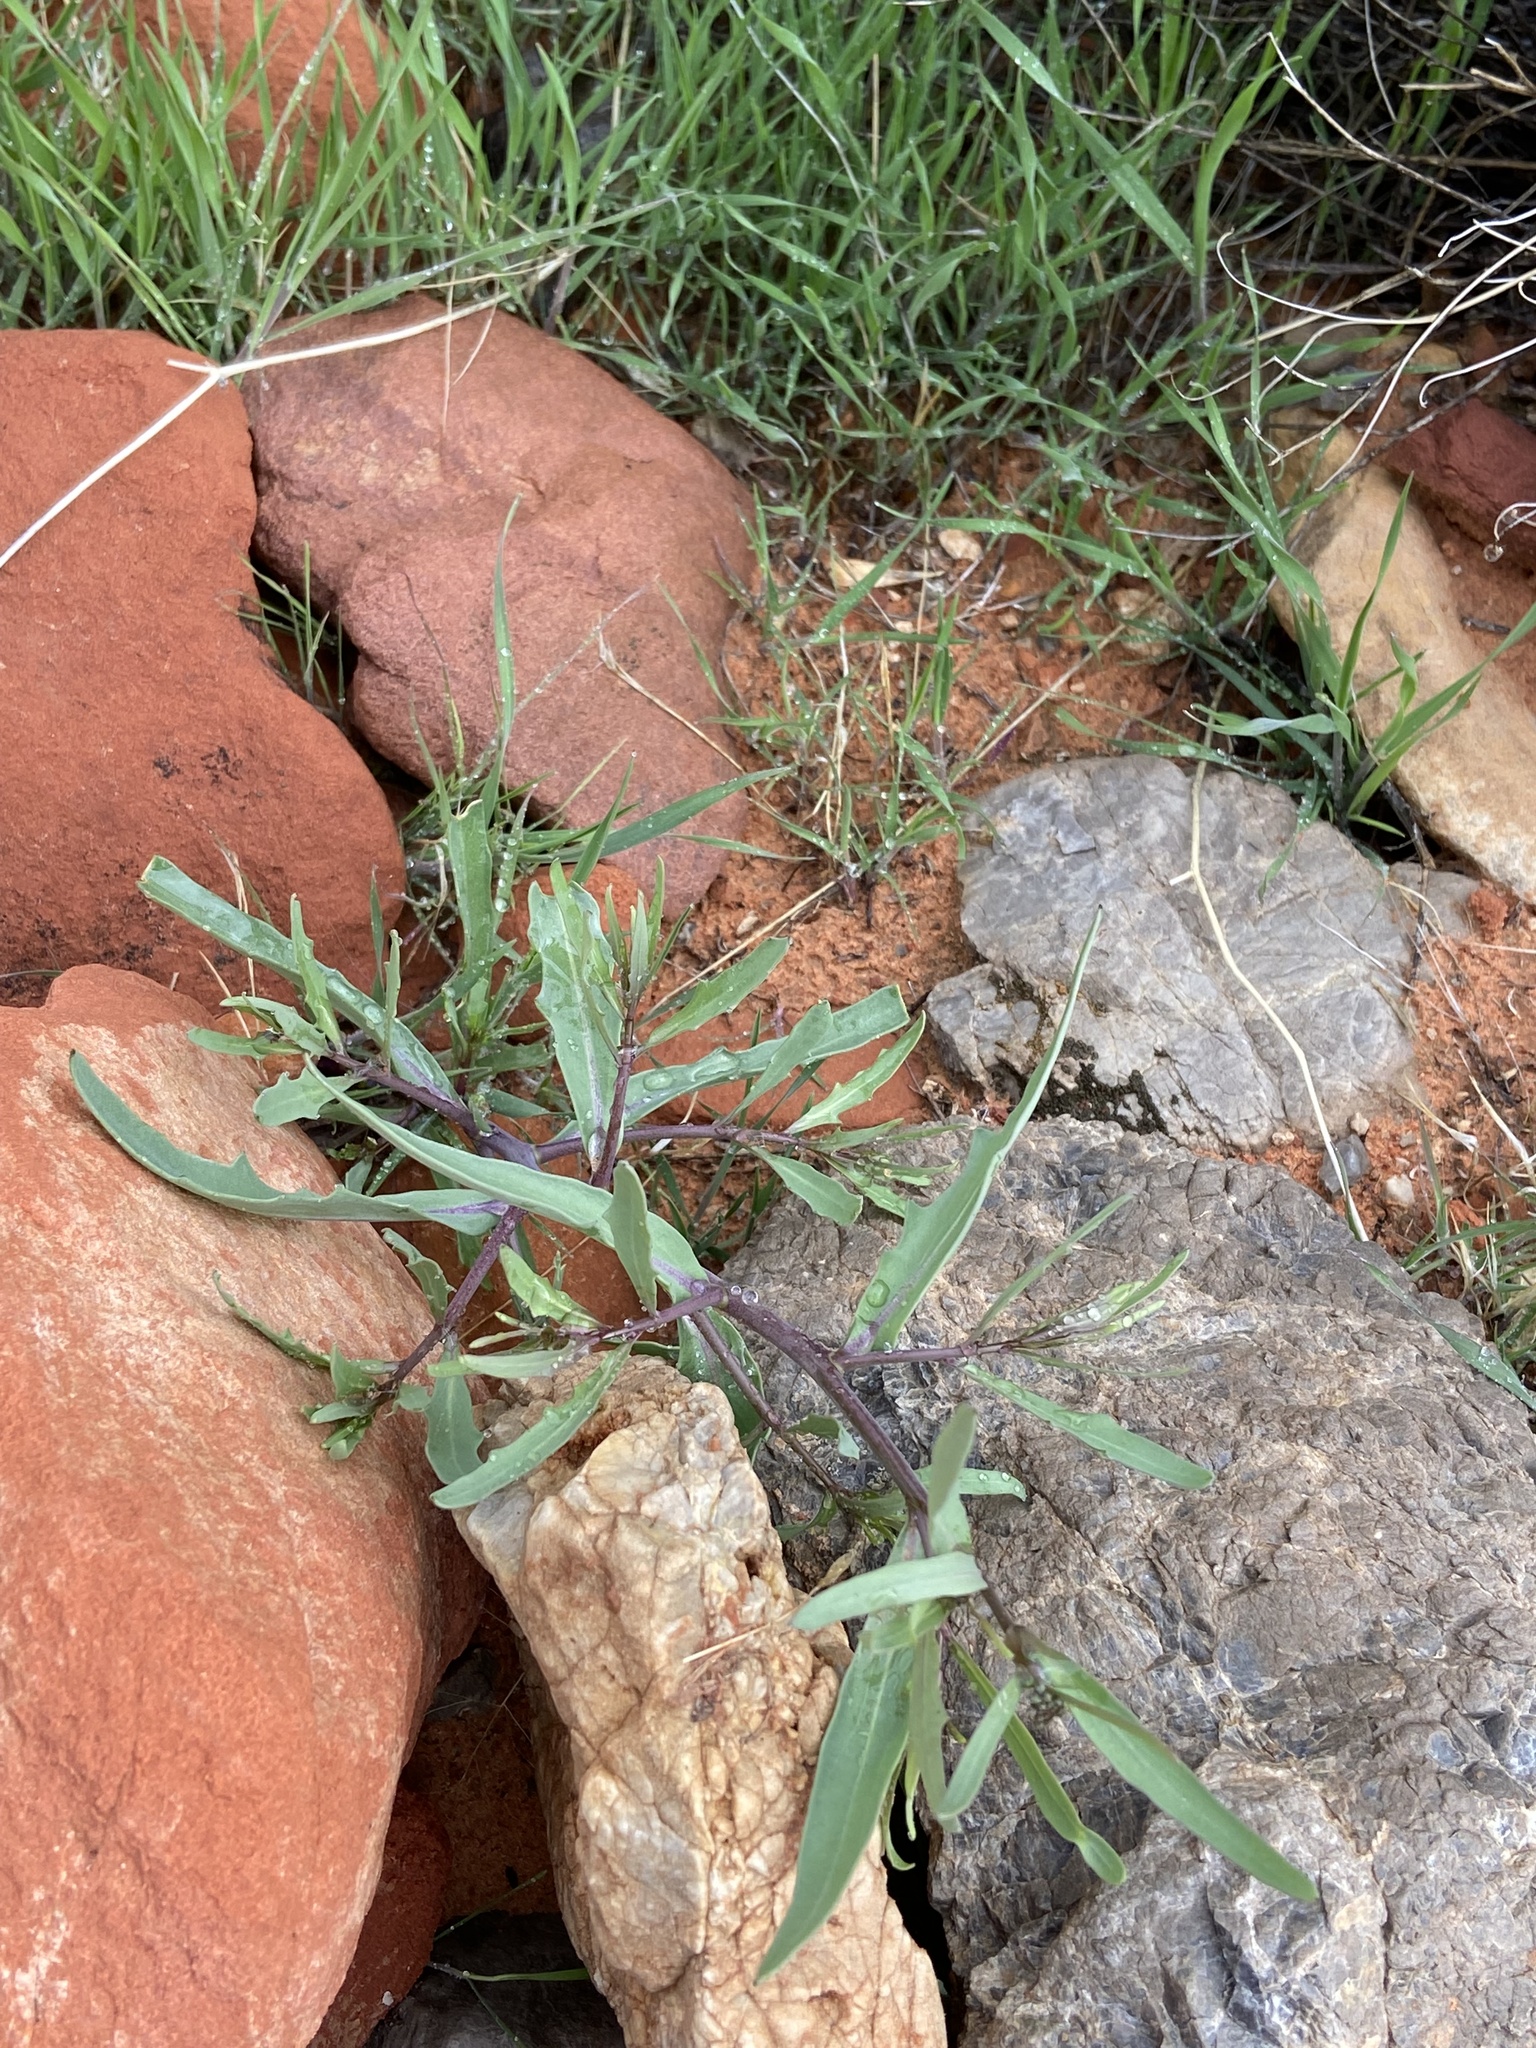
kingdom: Plantae
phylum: Tracheophyta
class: Magnoliopsida
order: Brassicales
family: Brassicaceae
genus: Streptanthus
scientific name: Streptanthus longirostris
